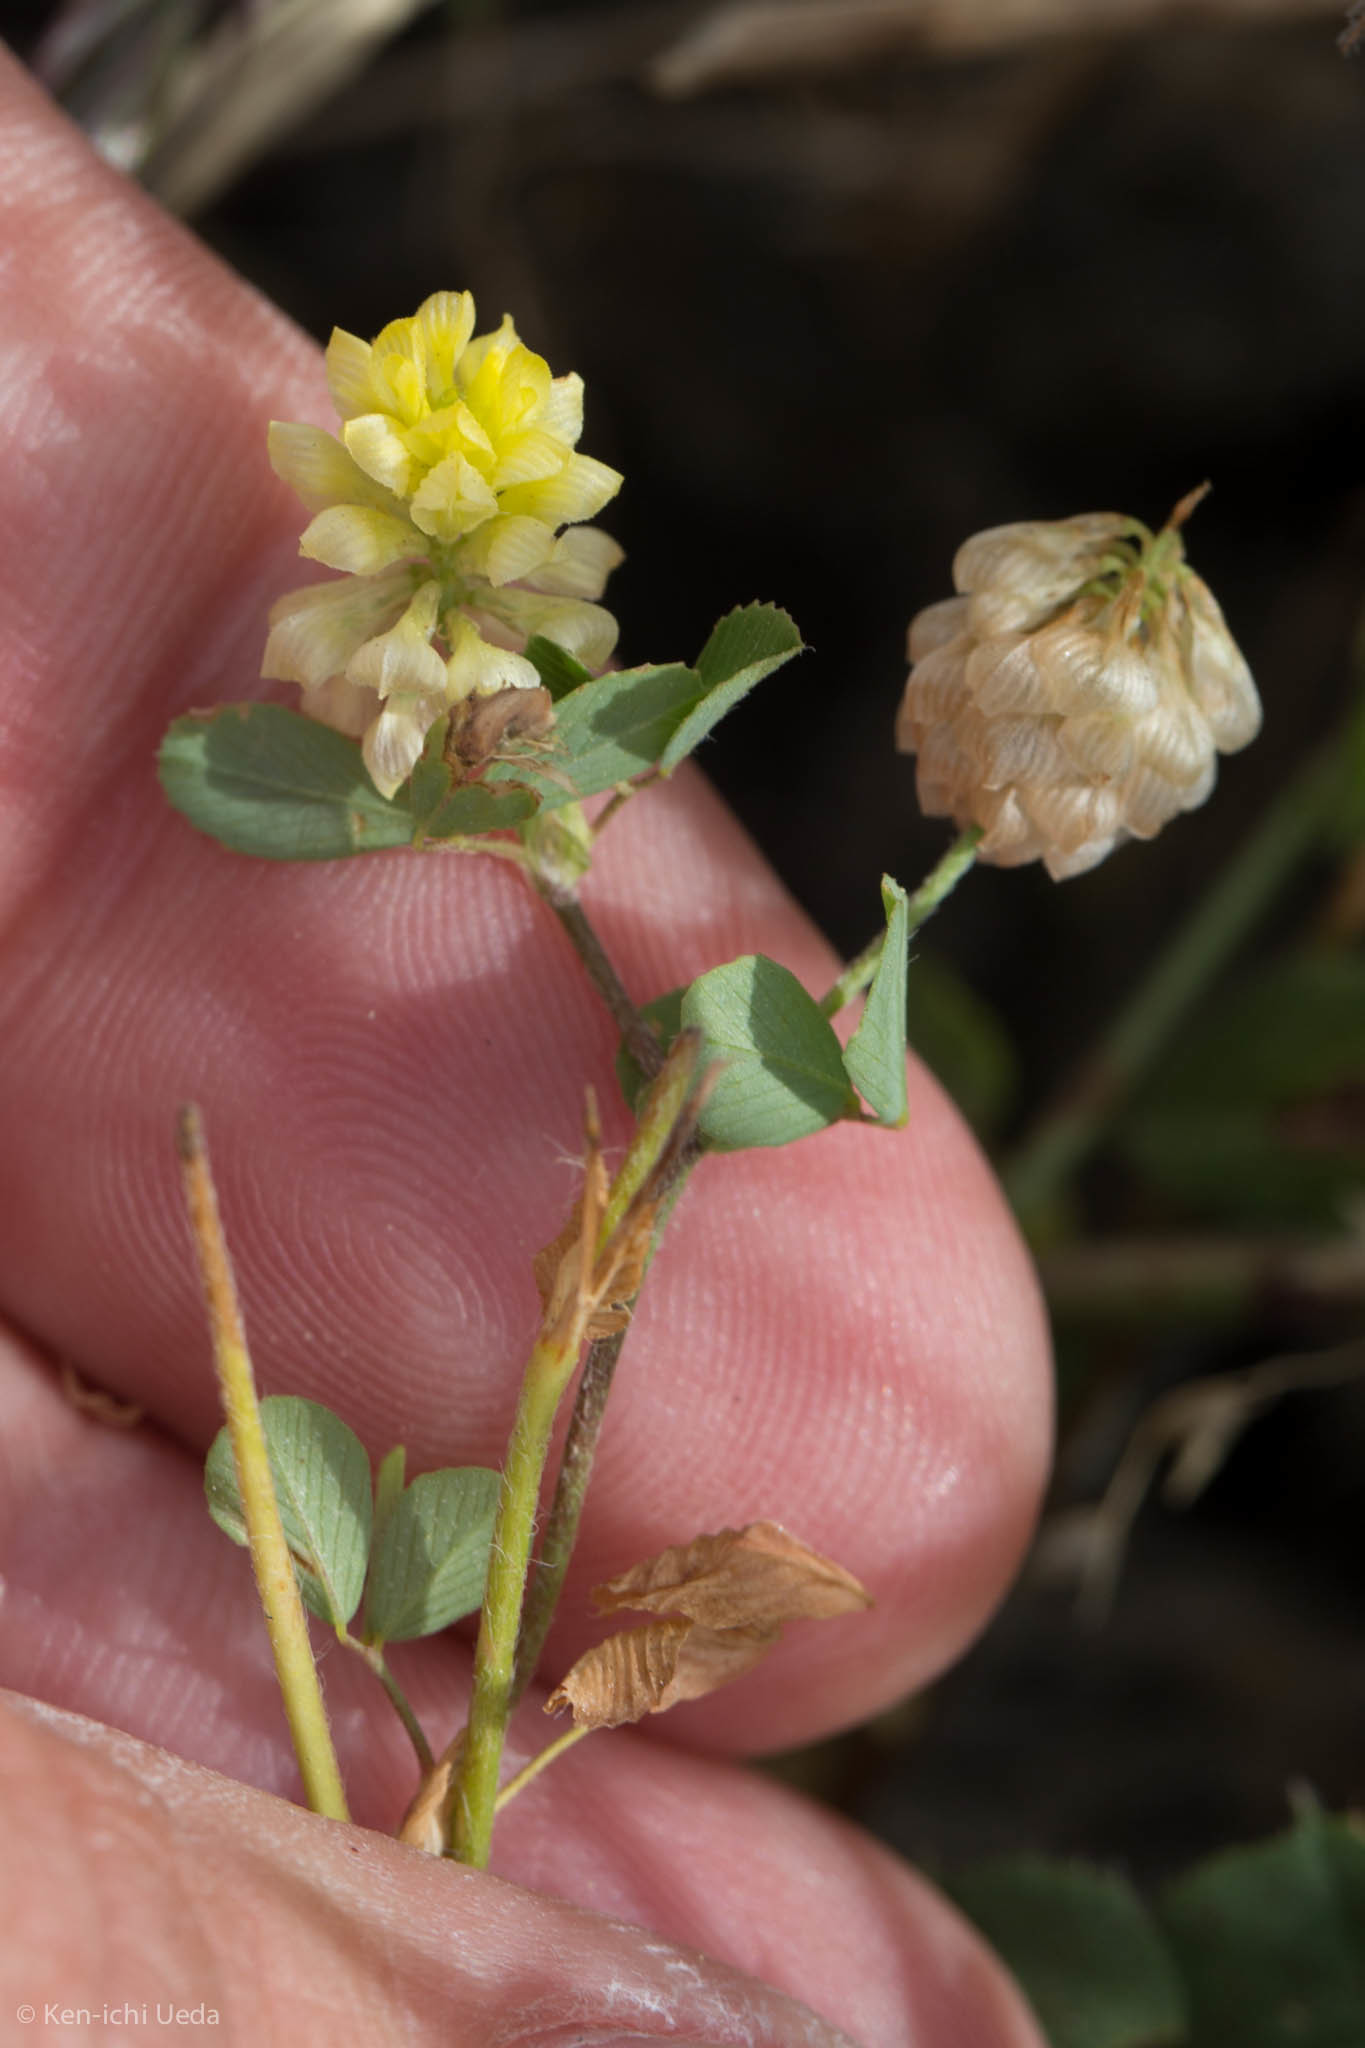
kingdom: Plantae
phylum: Tracheophyta
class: Magnoliopsida
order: Fabales
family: Fabaceae
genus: Trifolium
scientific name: Trifolium campestre
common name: Field clover
